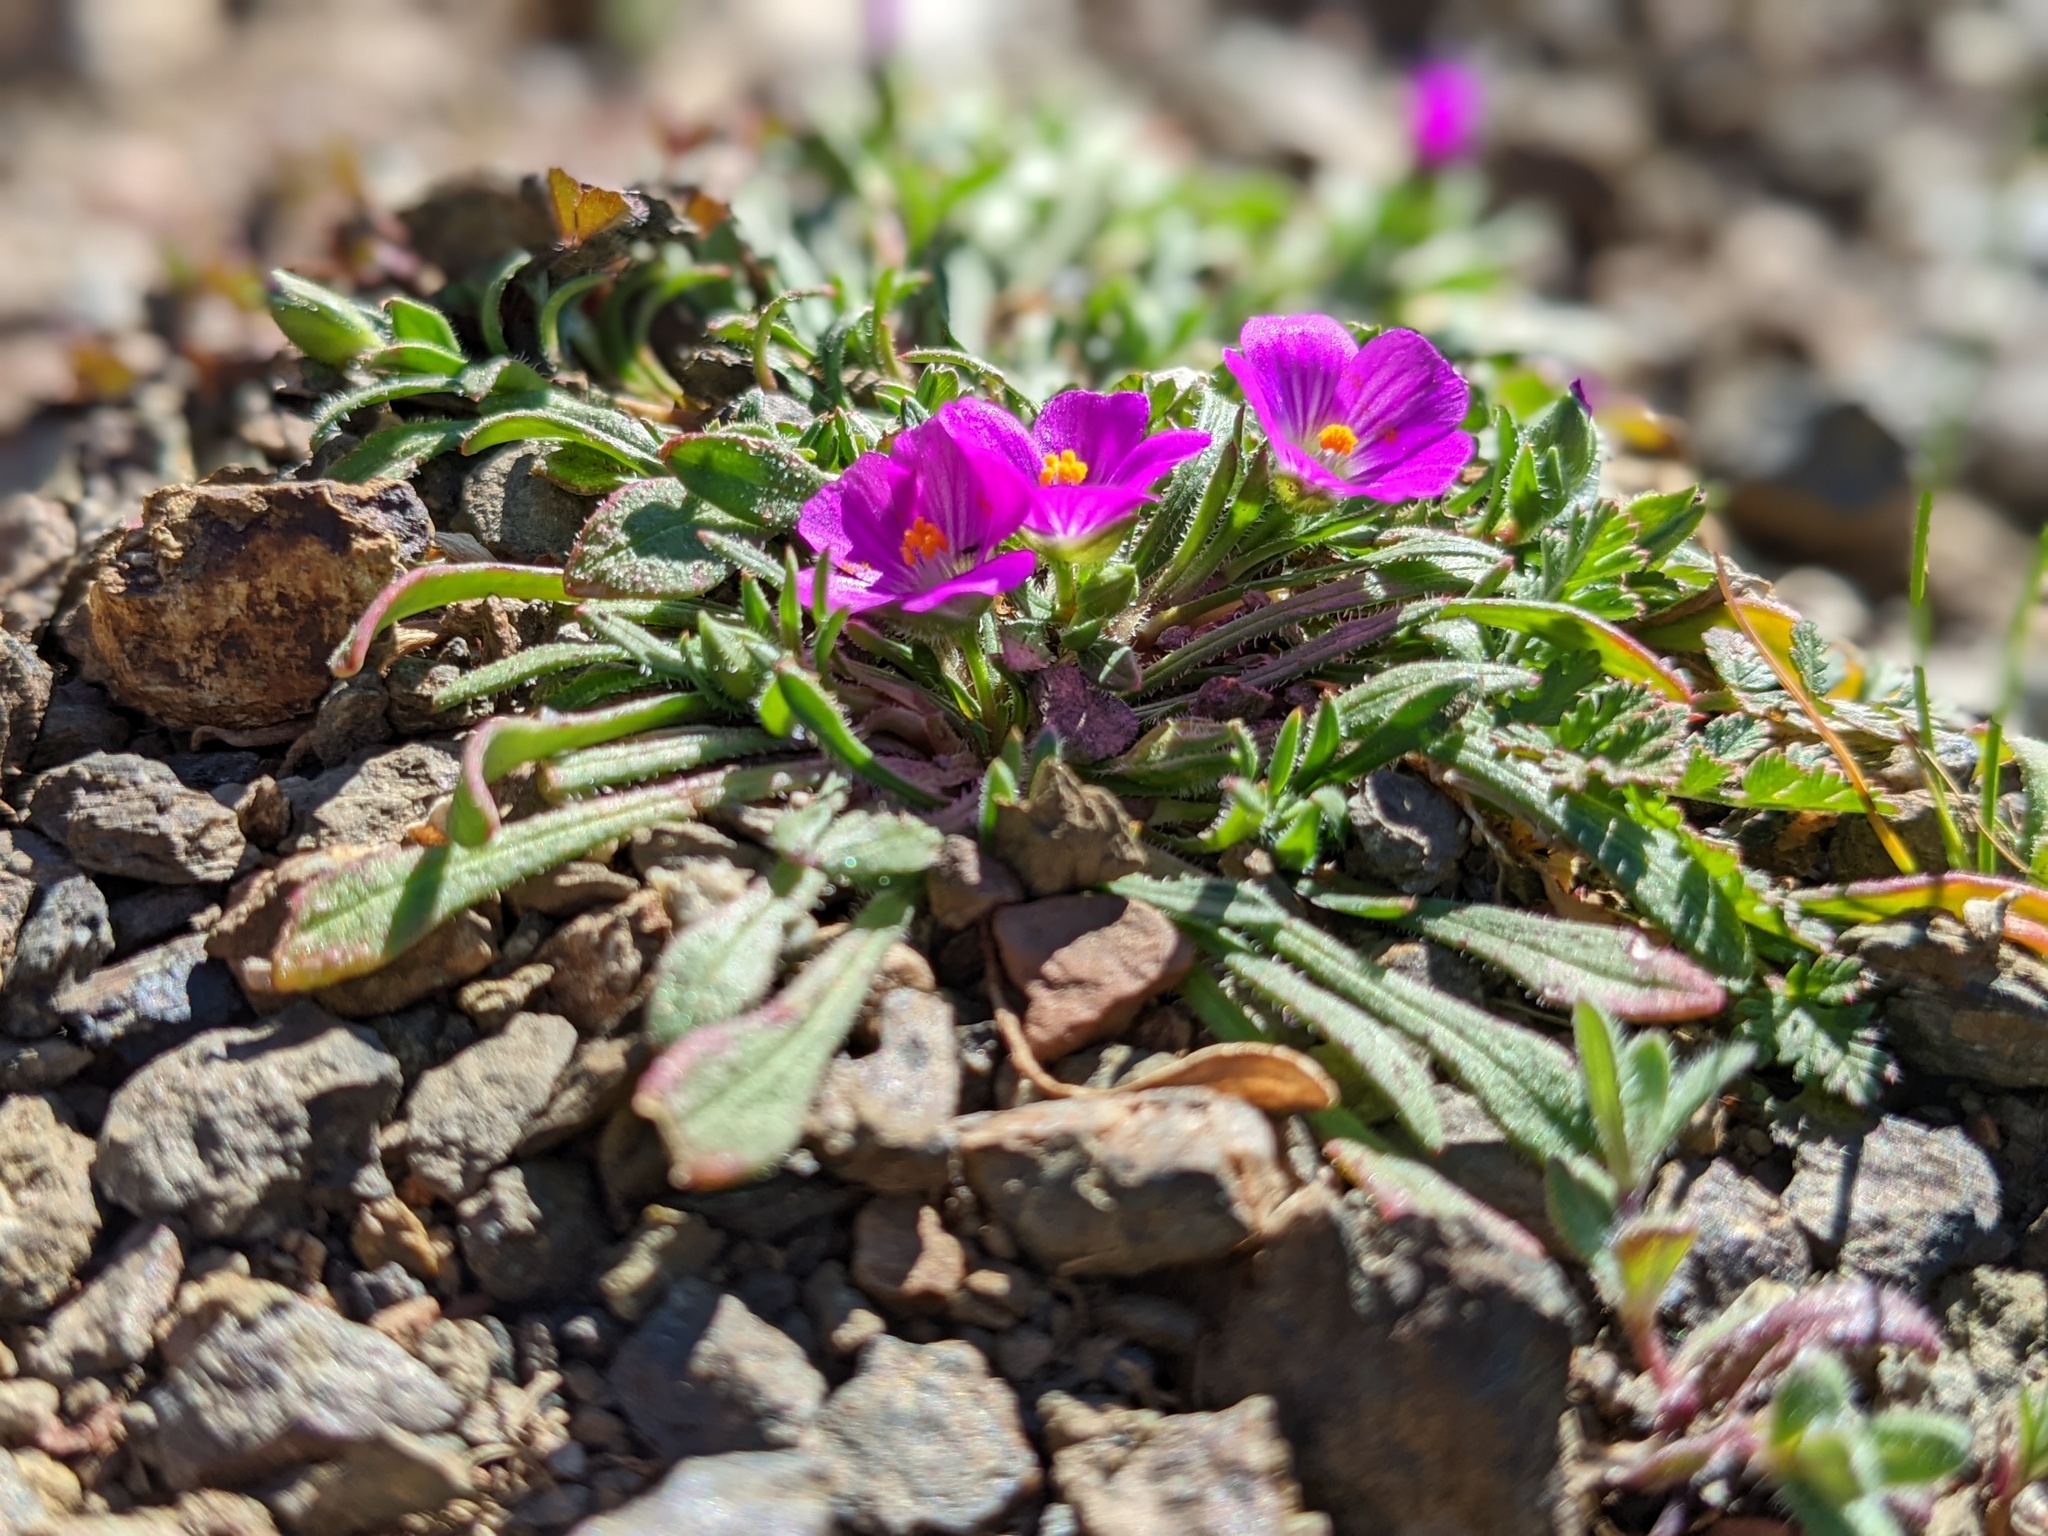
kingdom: Plantae
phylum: Tracheophyta
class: Magnoliopsida
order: Caryophyllales
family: Montiaceae
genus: Calandrinia
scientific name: Calandrinia menziesii
